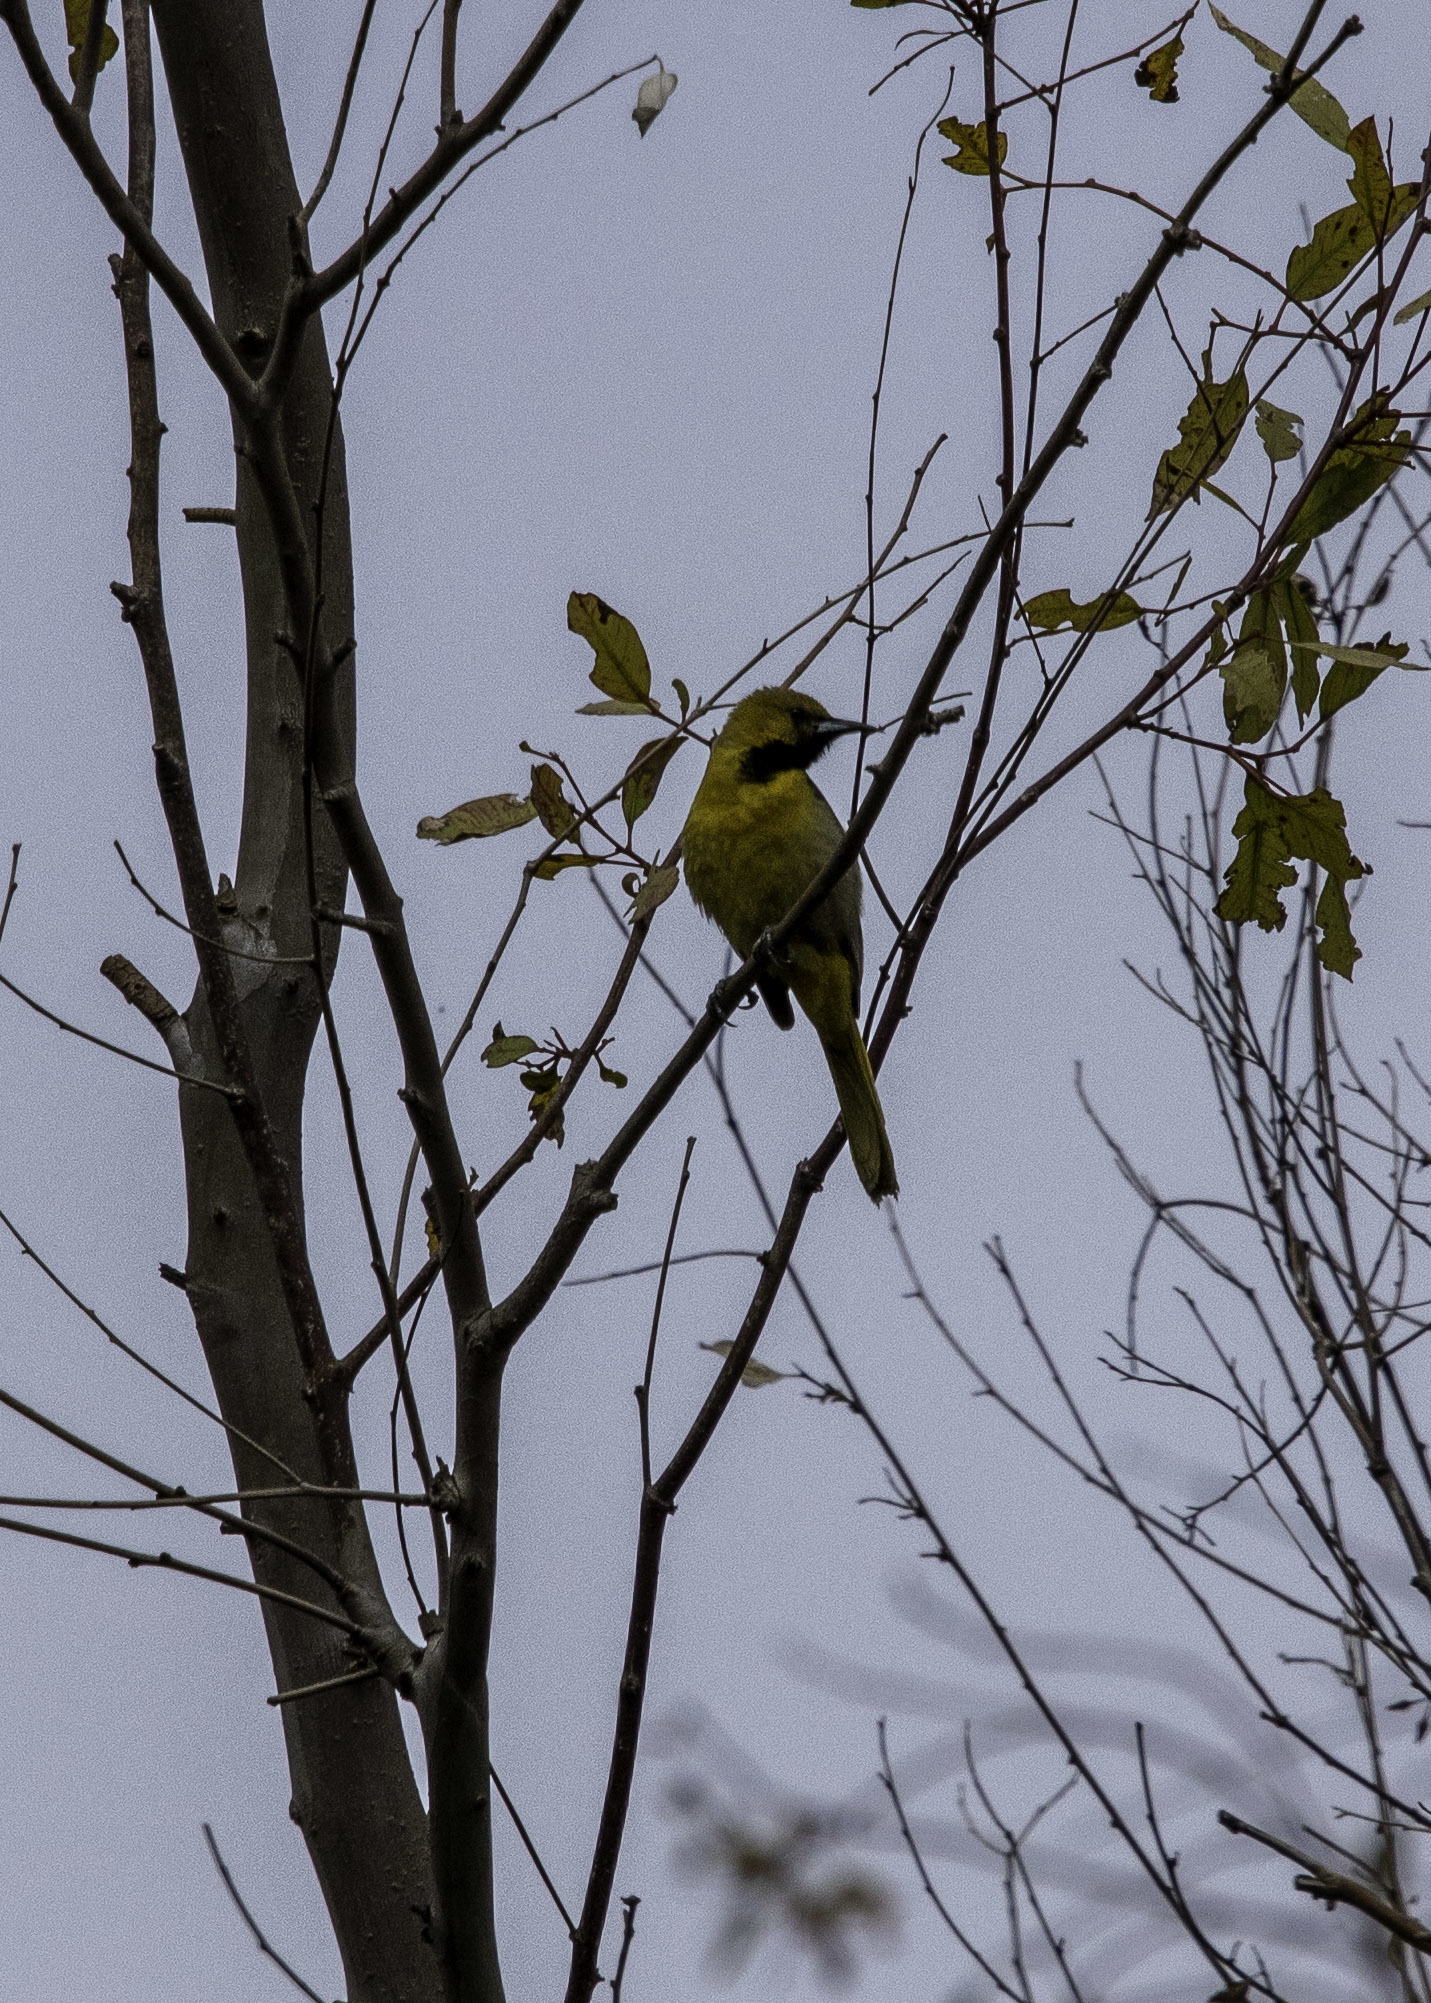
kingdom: Animalia
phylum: Chordata
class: Aves
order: Passeriformes
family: Icteridae
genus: Icterus
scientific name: Icterus cucullatus
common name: Hooded oriole
